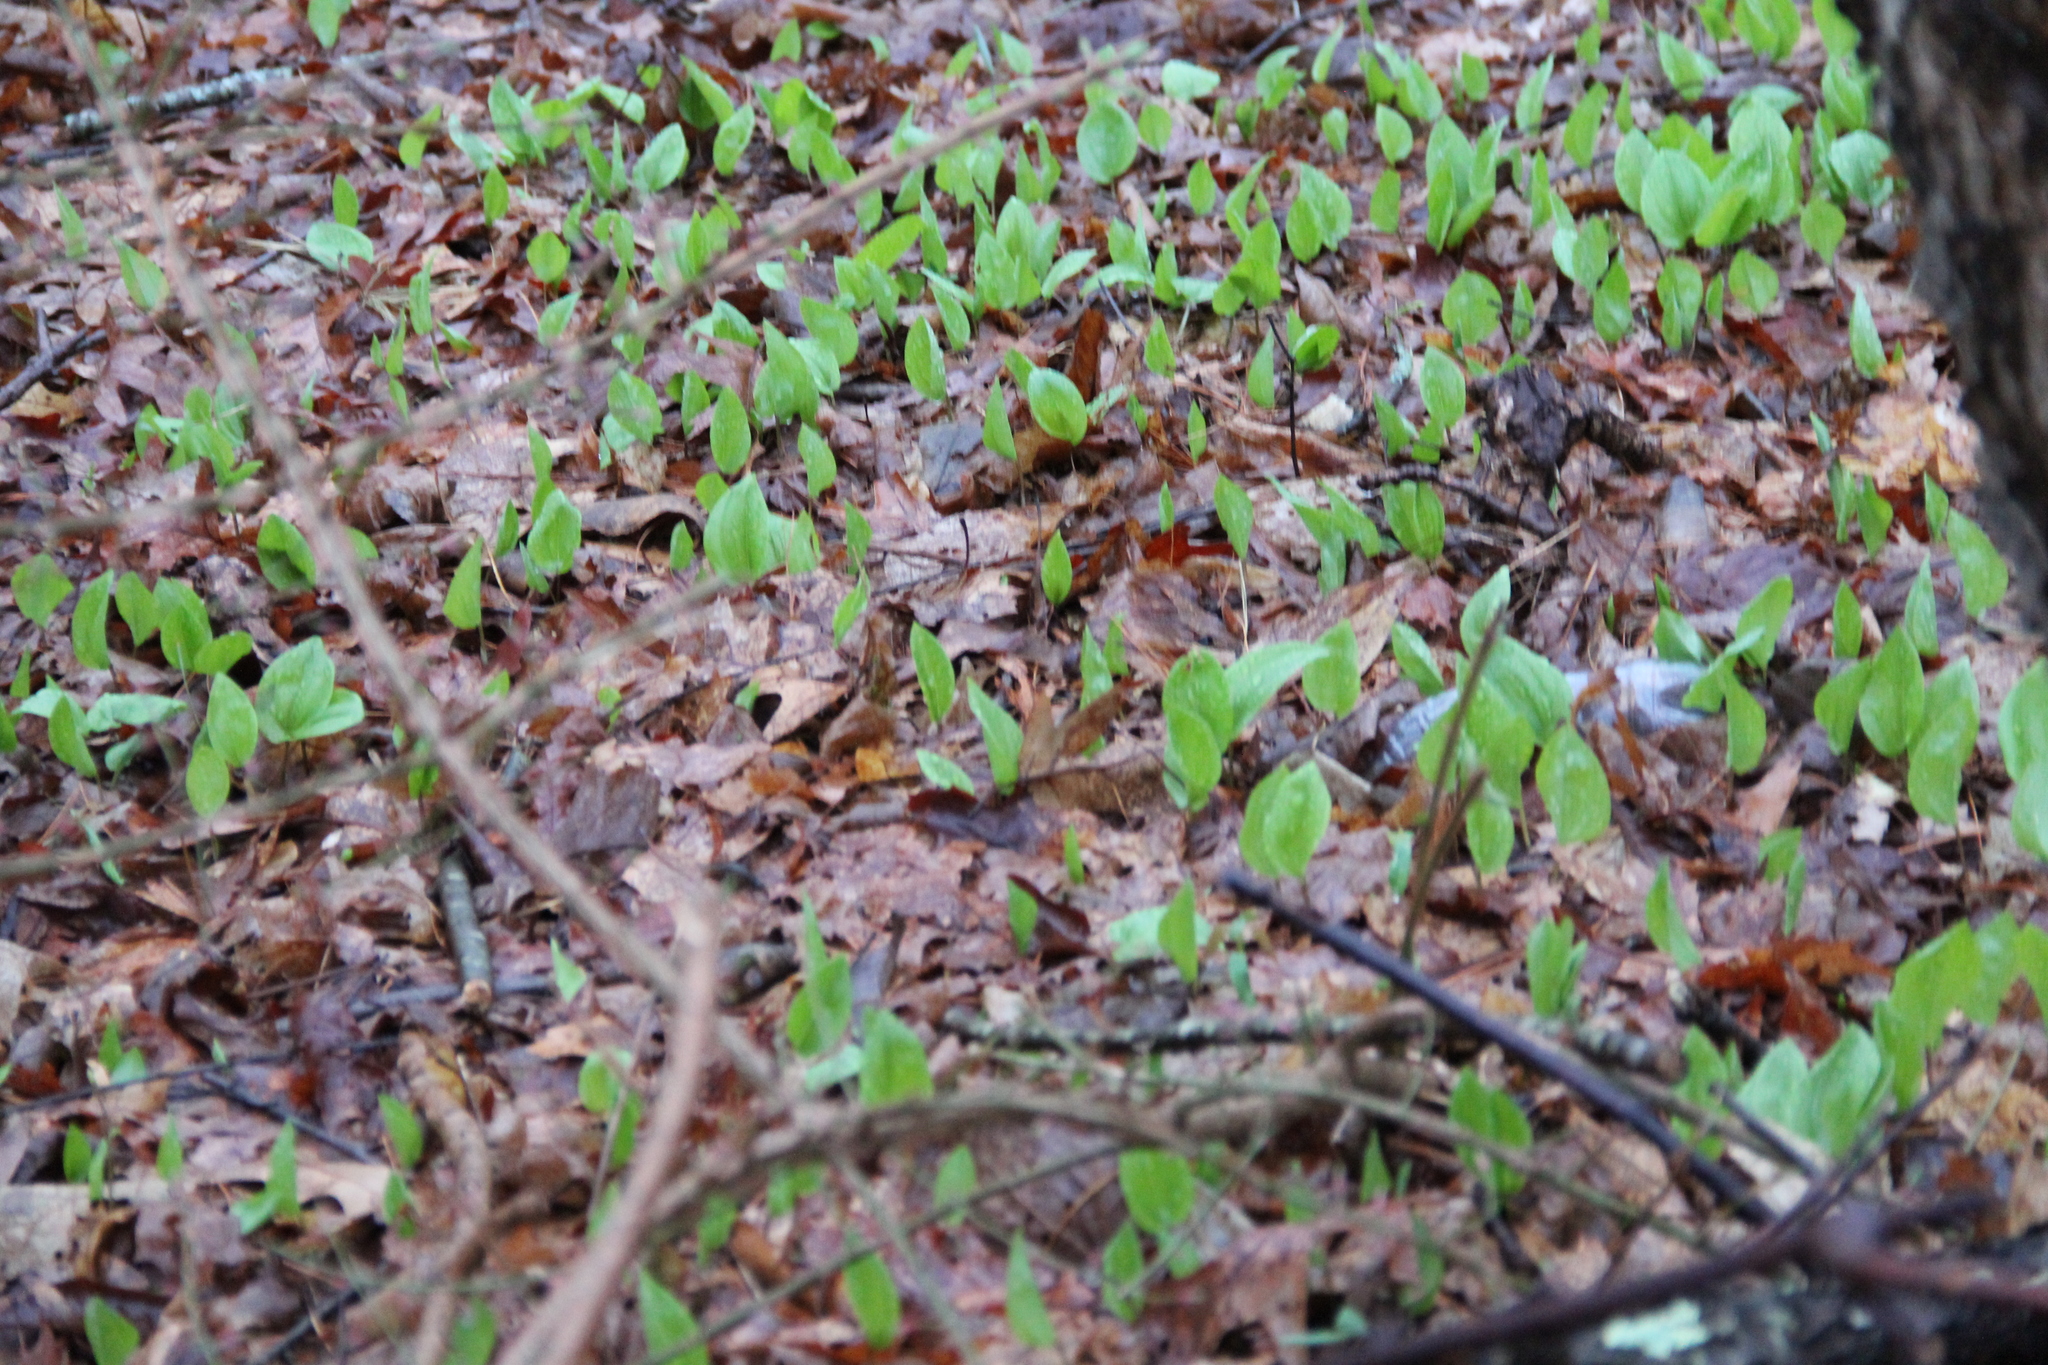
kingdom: Plantae
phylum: Tracheophyta
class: Liliopsida
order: Asparagales
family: Asparagaceae
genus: Maianthemum
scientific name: Maianthemum canadense
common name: False lily-of-the-valley
